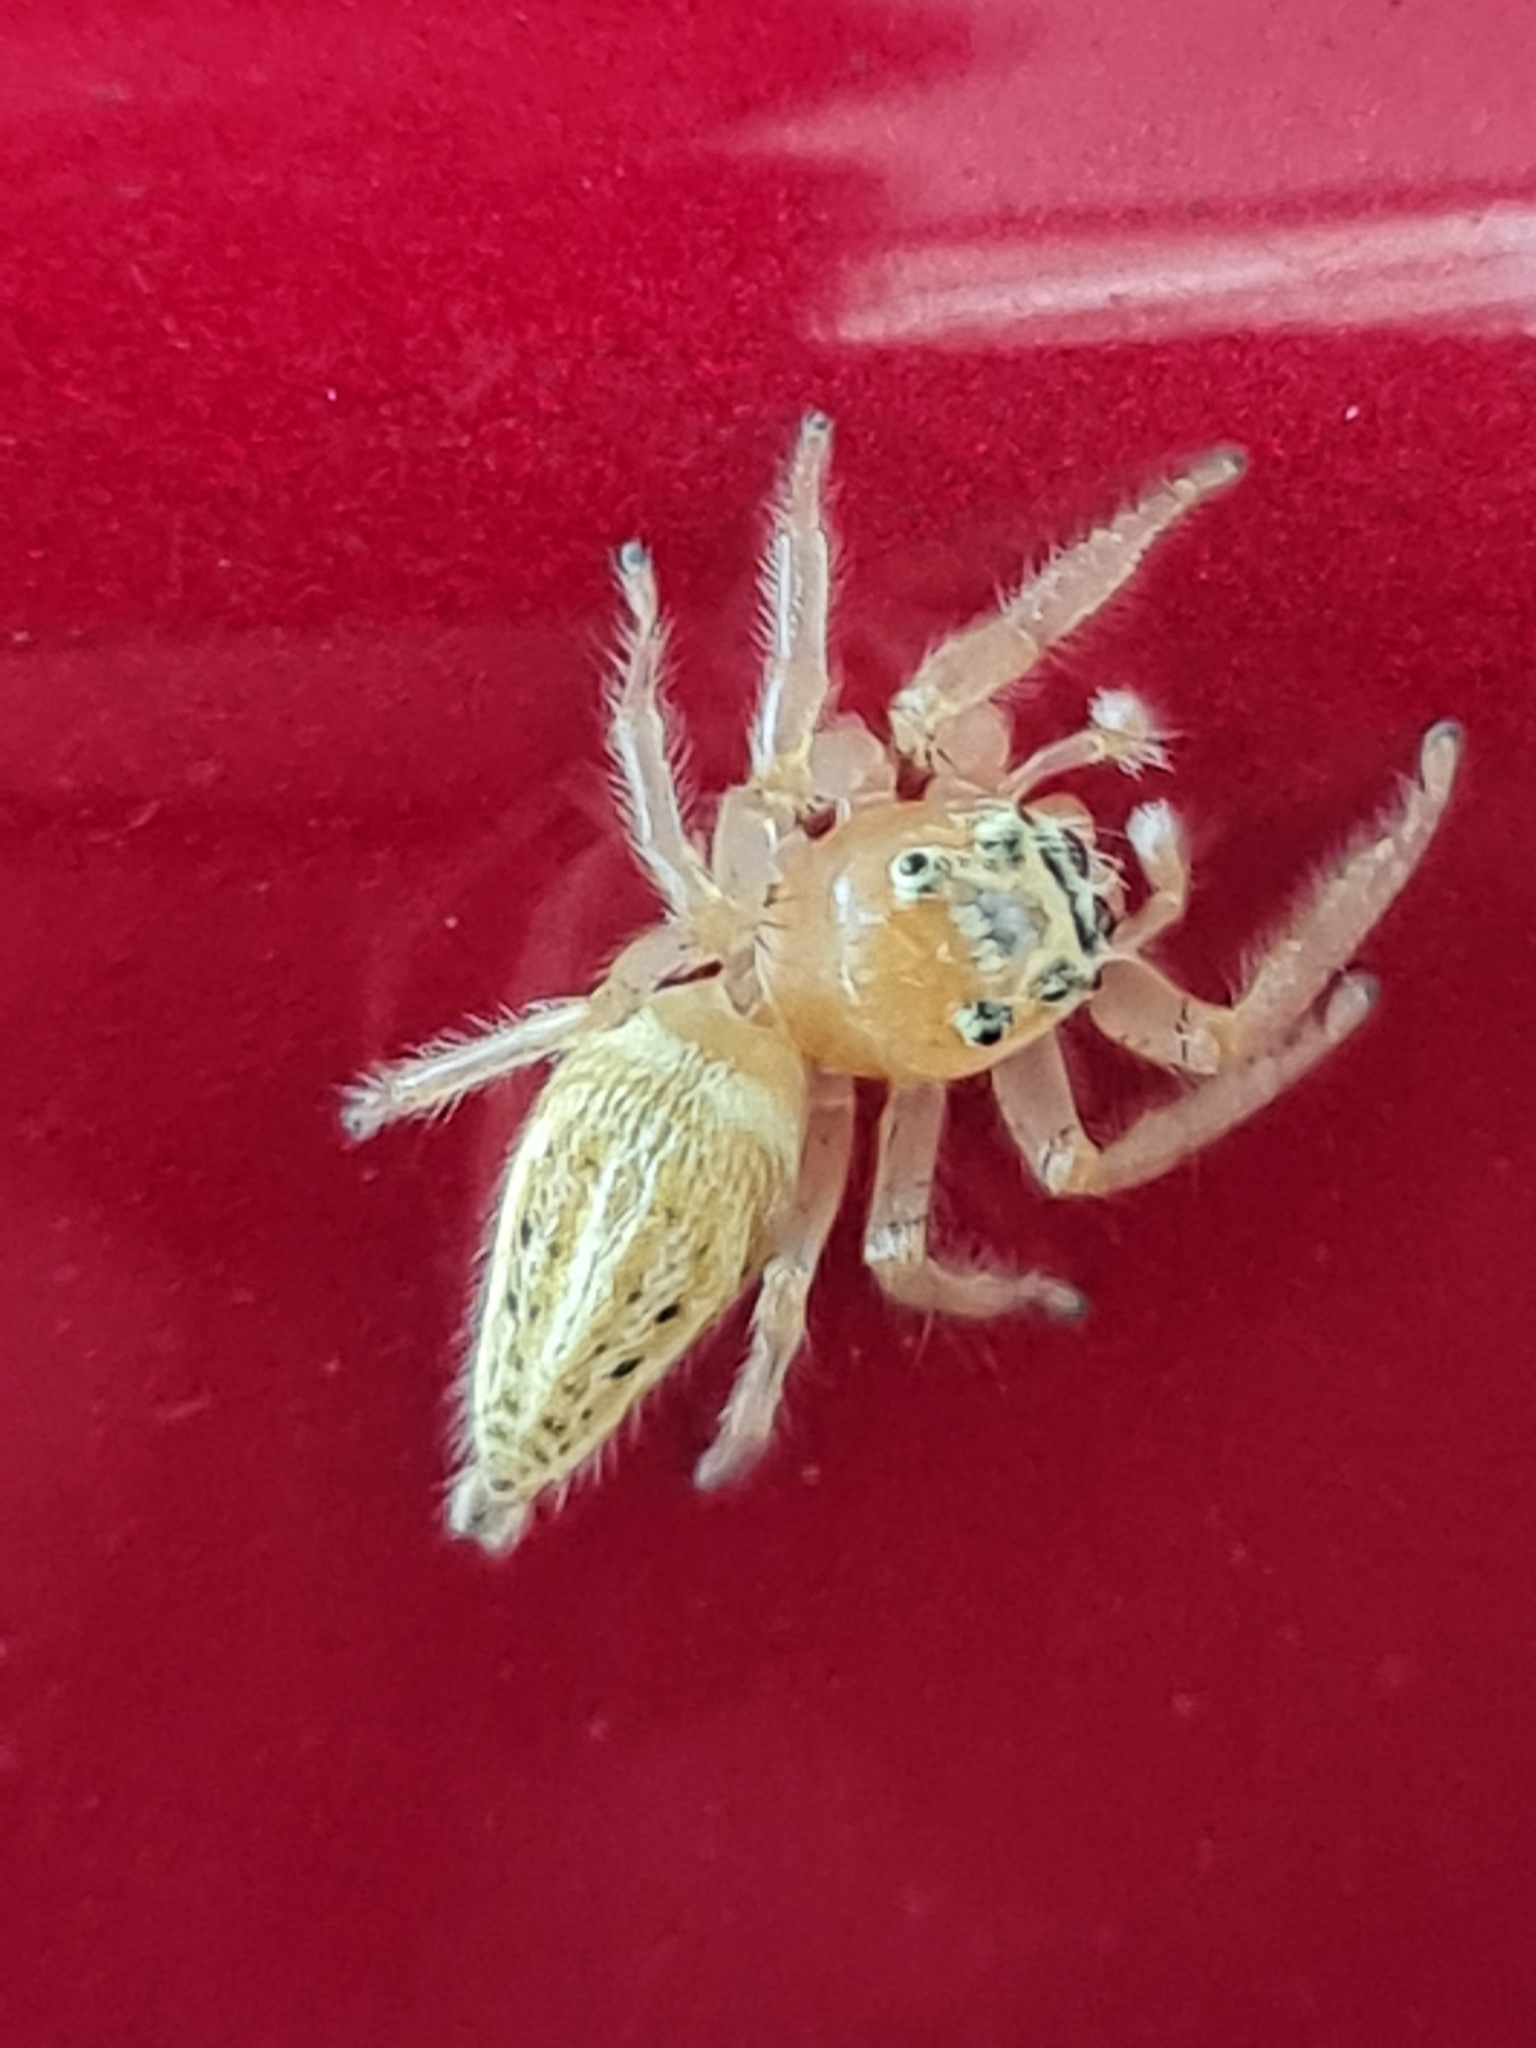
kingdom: Animalia
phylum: Arthropoda
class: Arachnida
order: Araneae
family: Salticidae
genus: Colonus
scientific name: Colonus sylvanus
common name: Jumping spiders
